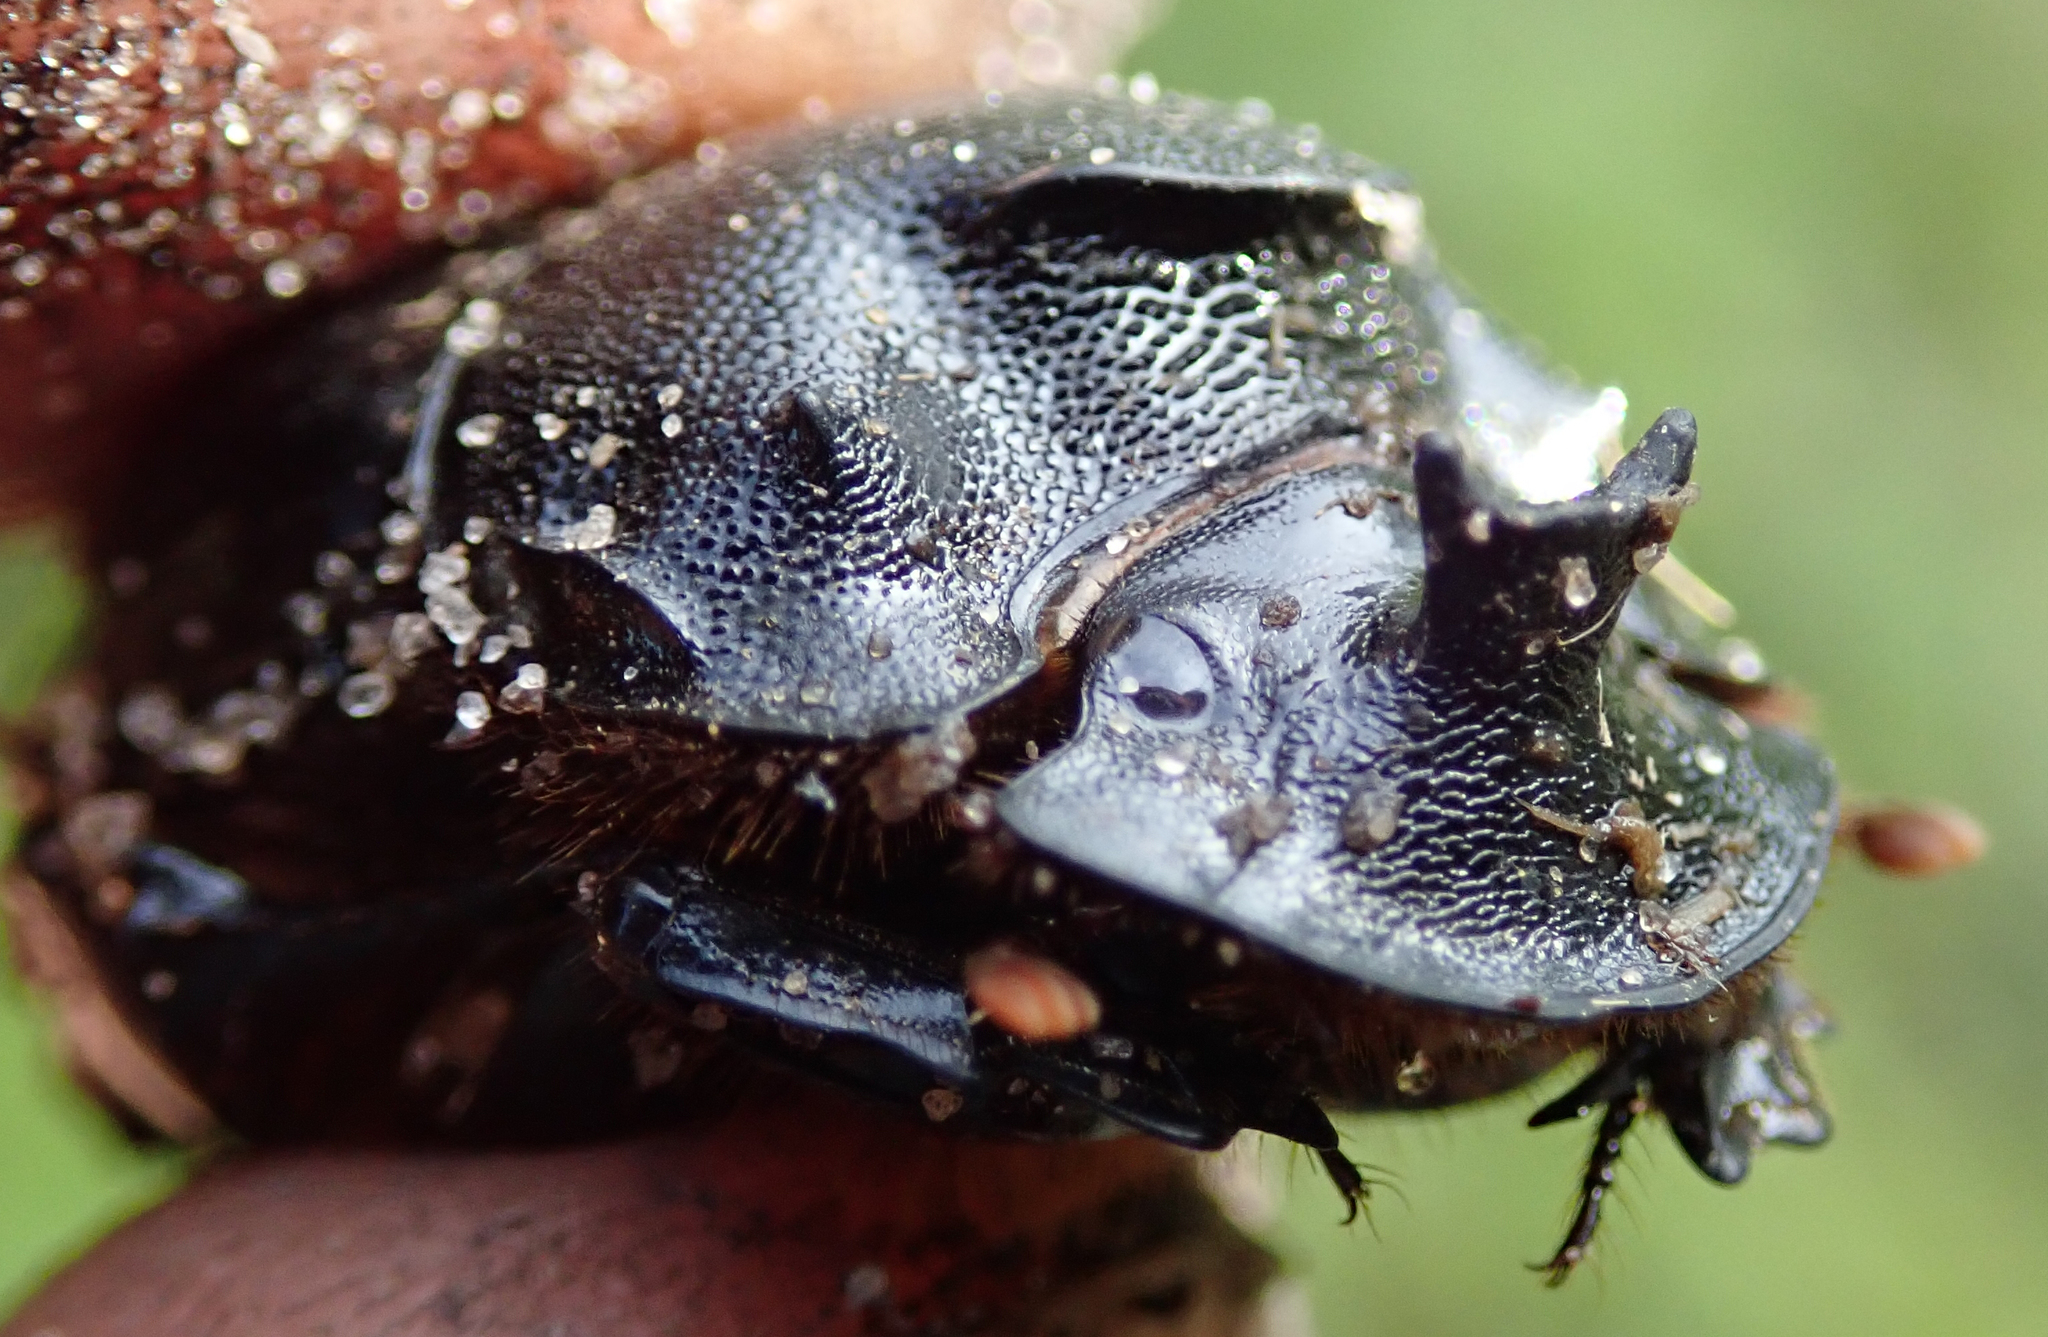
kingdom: Animalia
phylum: Arthropoda
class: Insecta
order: Coleoptera
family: Scarabaeidae
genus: Copris
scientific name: Copris elphenor
